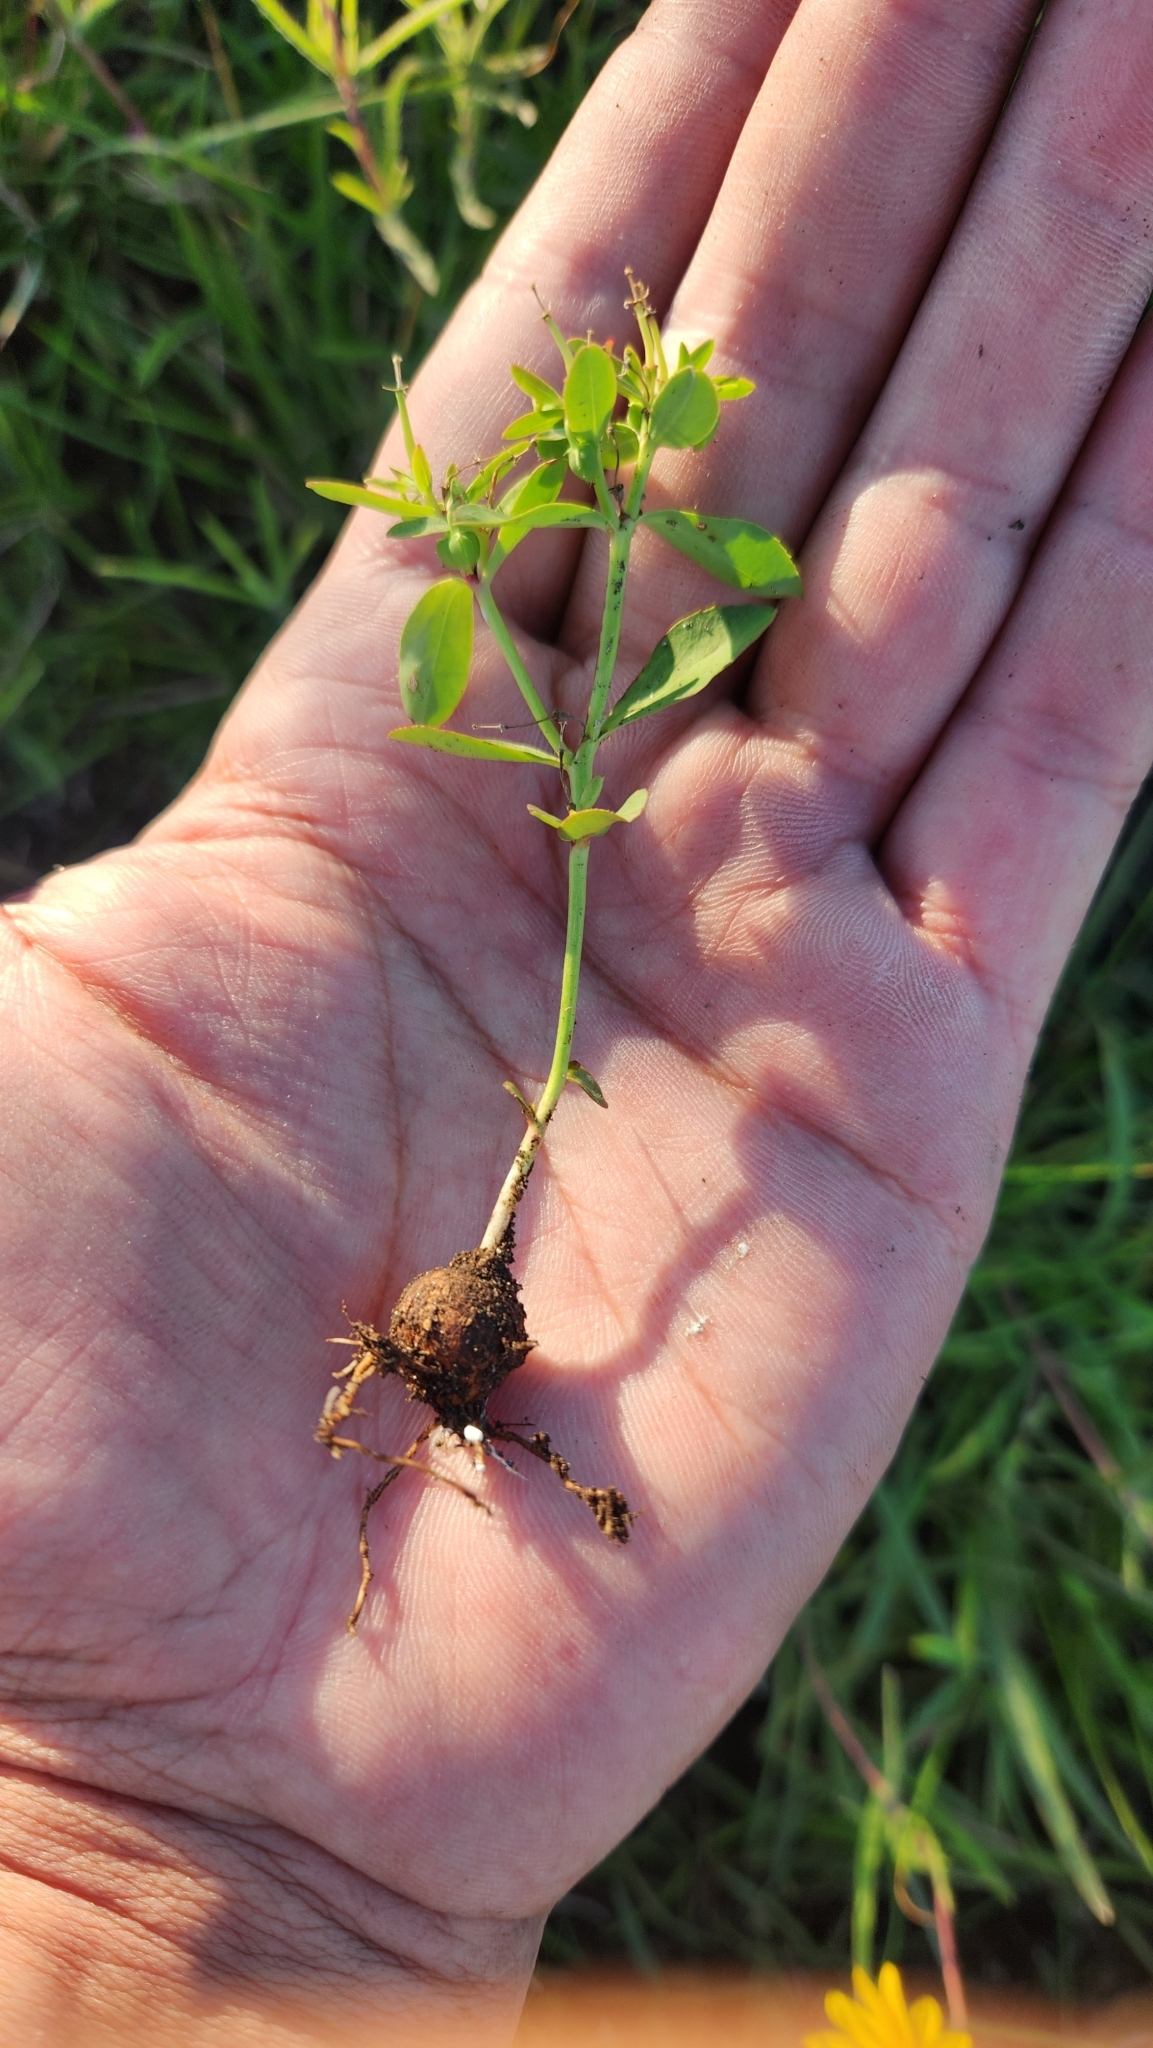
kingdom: Plantae
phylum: Tracheophyta
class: Magnoliopsida
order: Malpighiales
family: Euphorbiaceae
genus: Euphorbia
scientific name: Euphorbia burkartii
